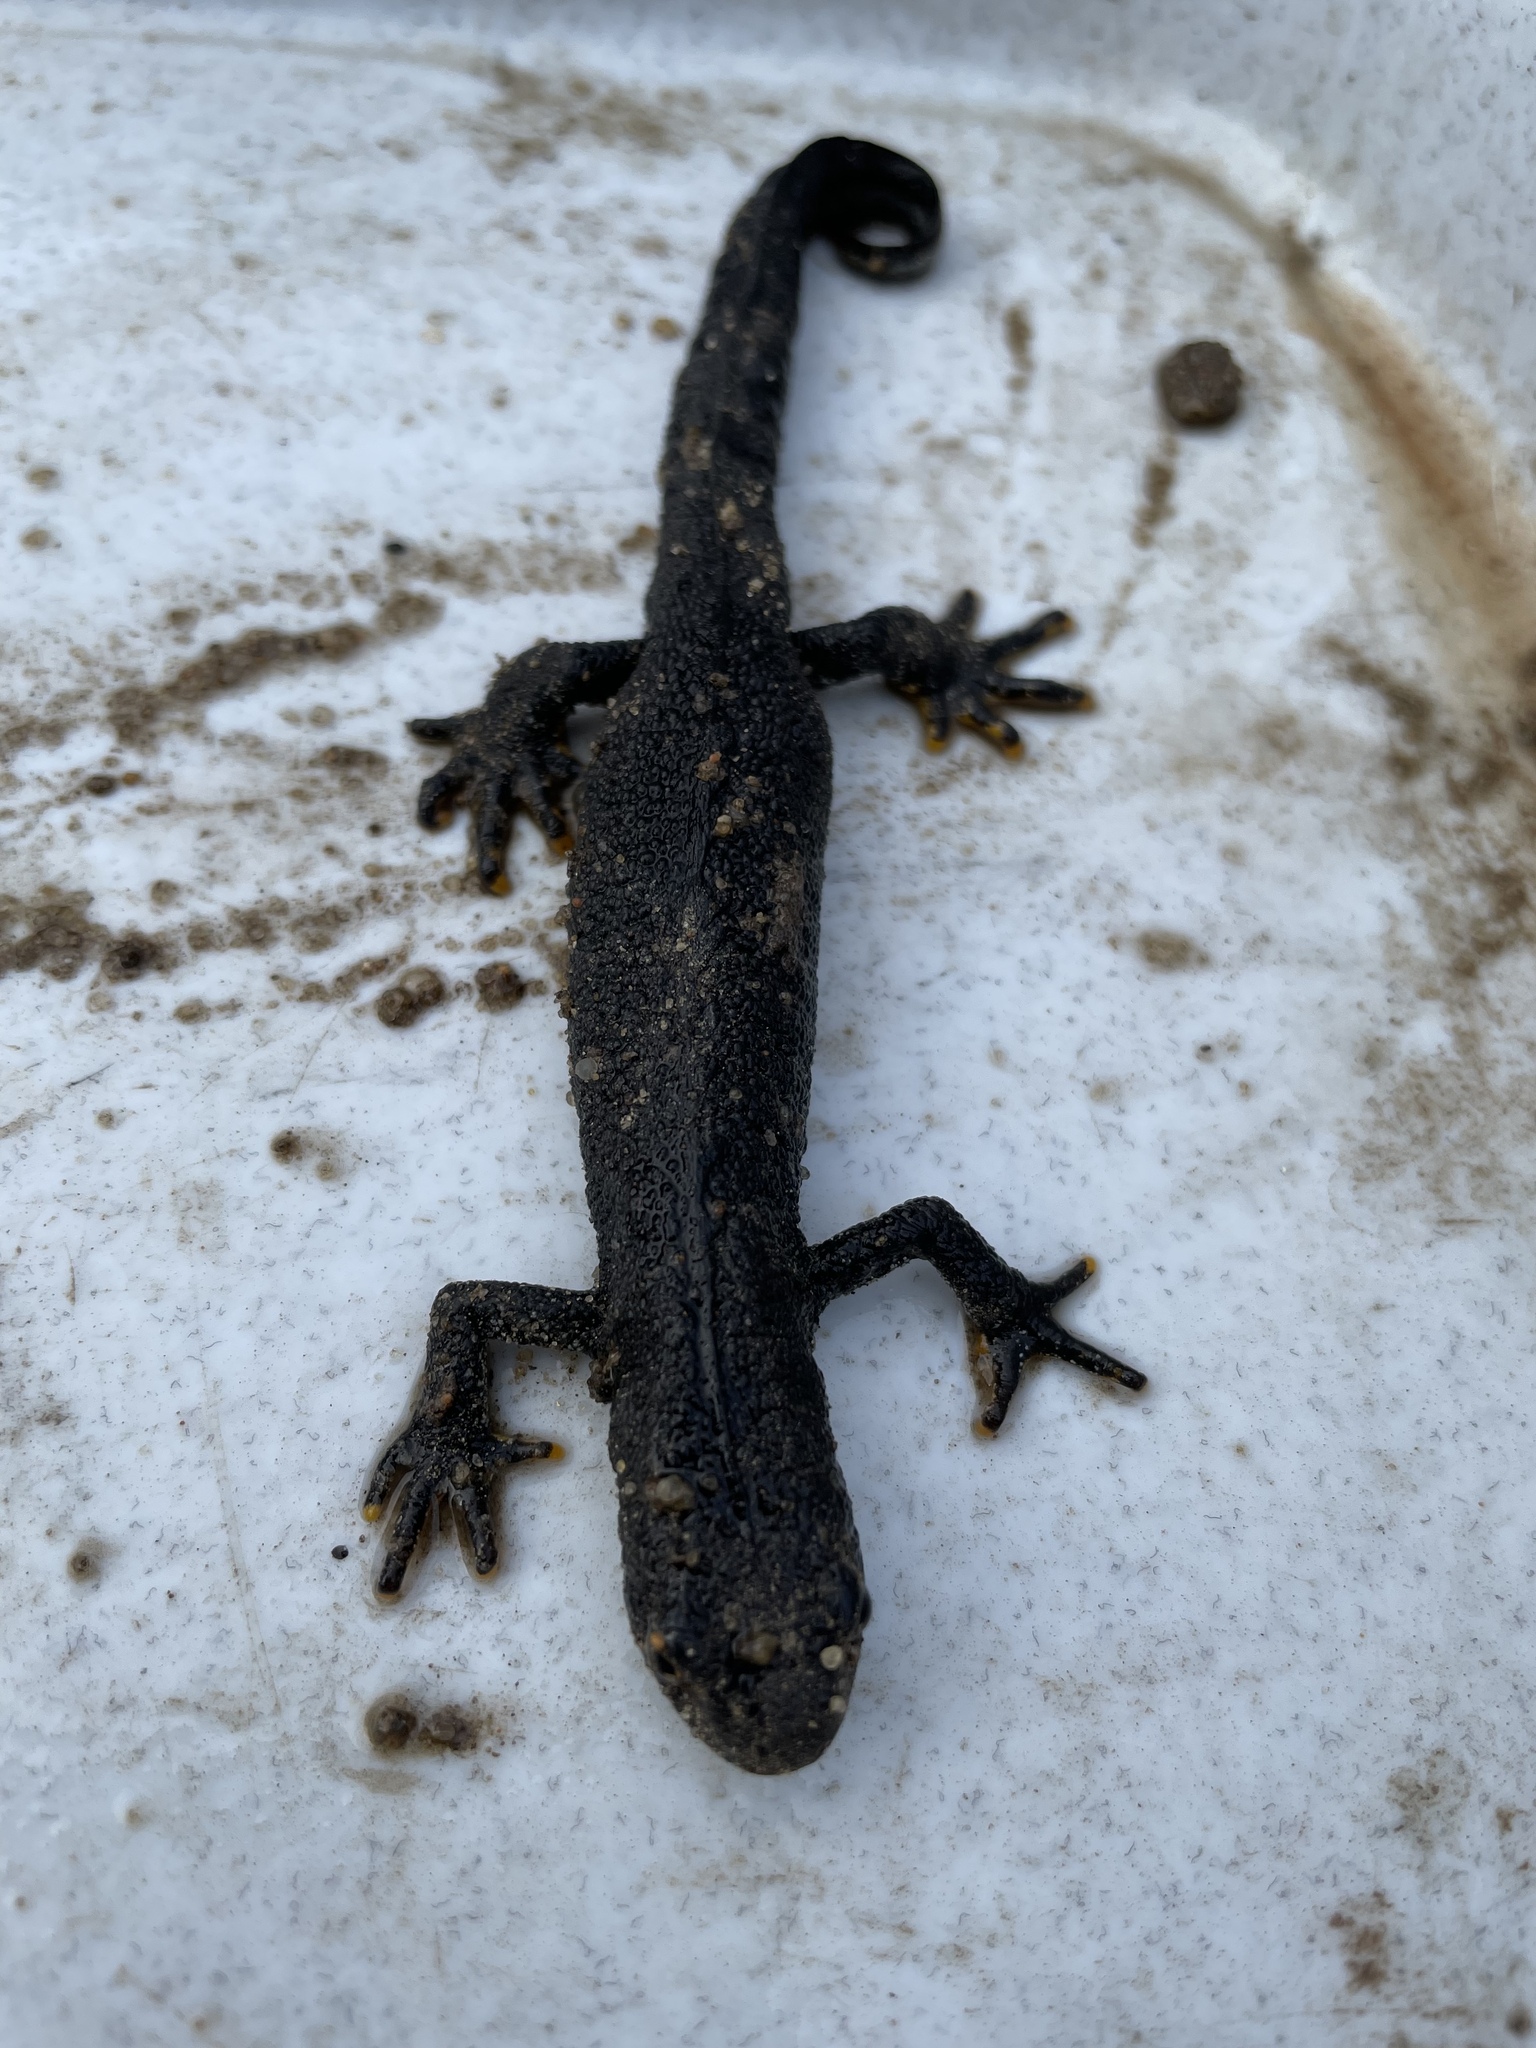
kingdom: Animalia
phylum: Chordata
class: Amphibia
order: Caudata
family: Salamandridae
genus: Triturus
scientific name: Triturus cristatus
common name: Crested newt
